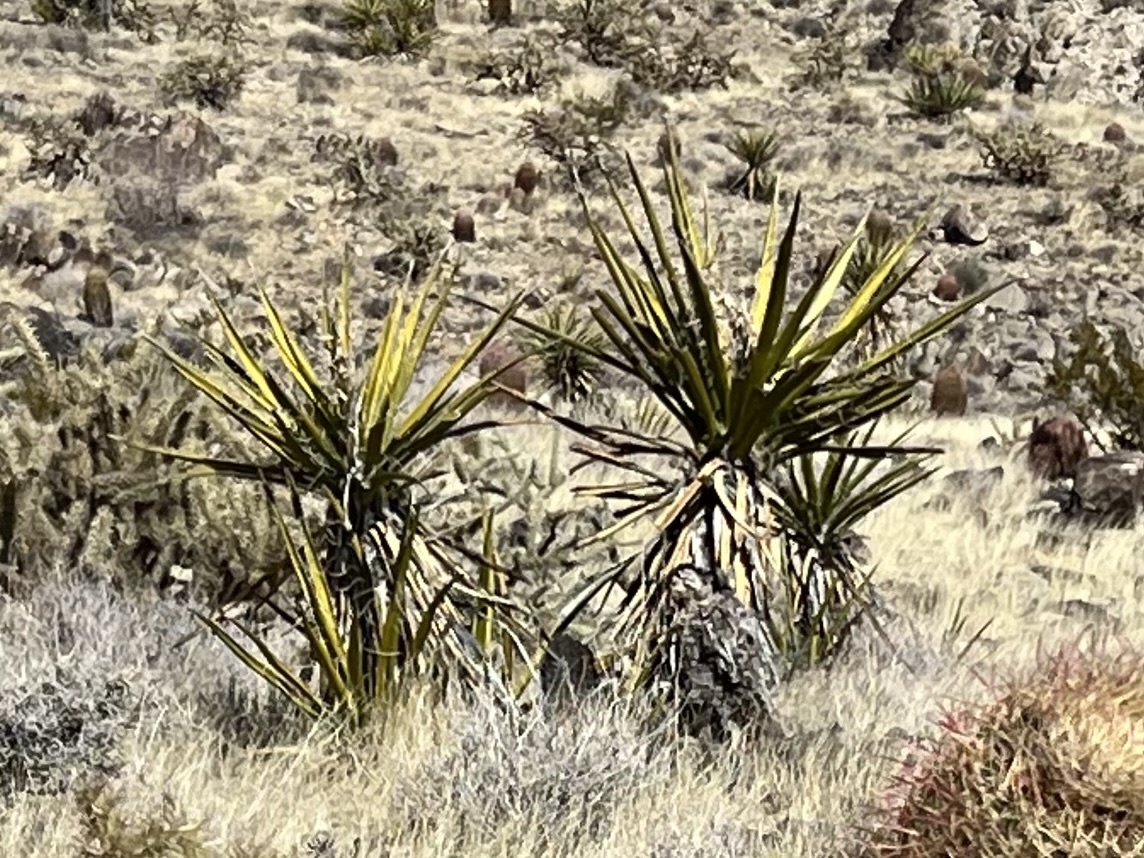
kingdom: Plantae
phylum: Tracheophyta
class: Liliopsida
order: Asparagales
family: Asparagaceae
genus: Yucca
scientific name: Yucca schidigera
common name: Mojave yucca
